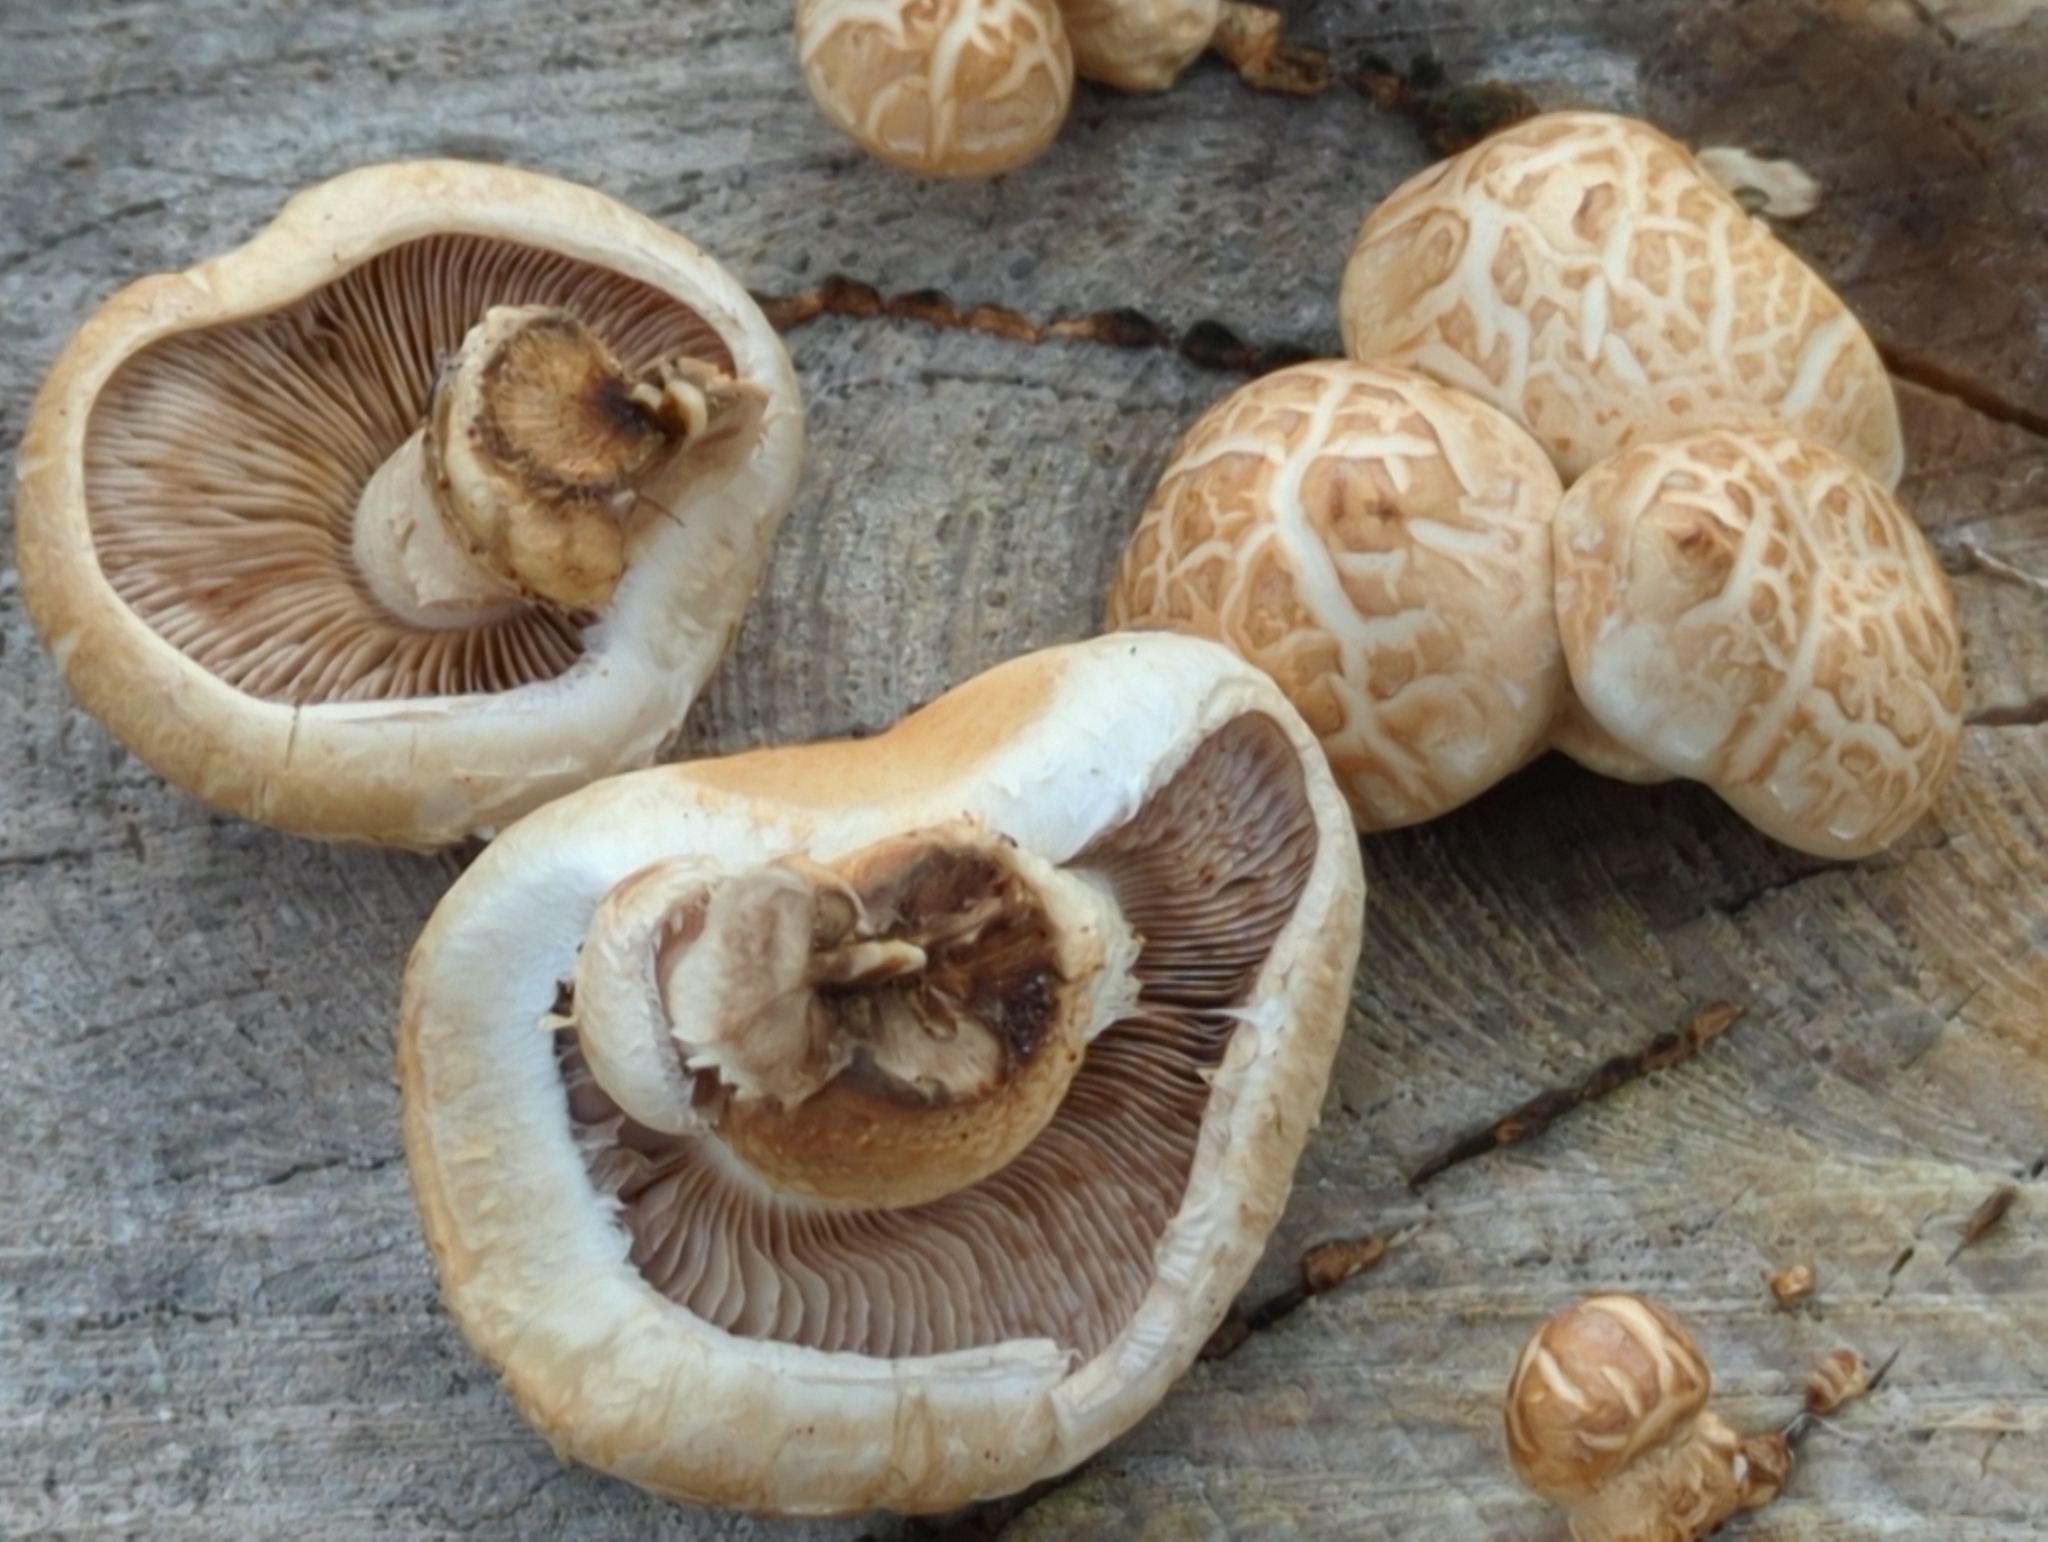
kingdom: Fungi
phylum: Basidiomycota
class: Agaricomycetes
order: Agaricales
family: Strophariaceae
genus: Pholiota
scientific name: Pholiota populnea
